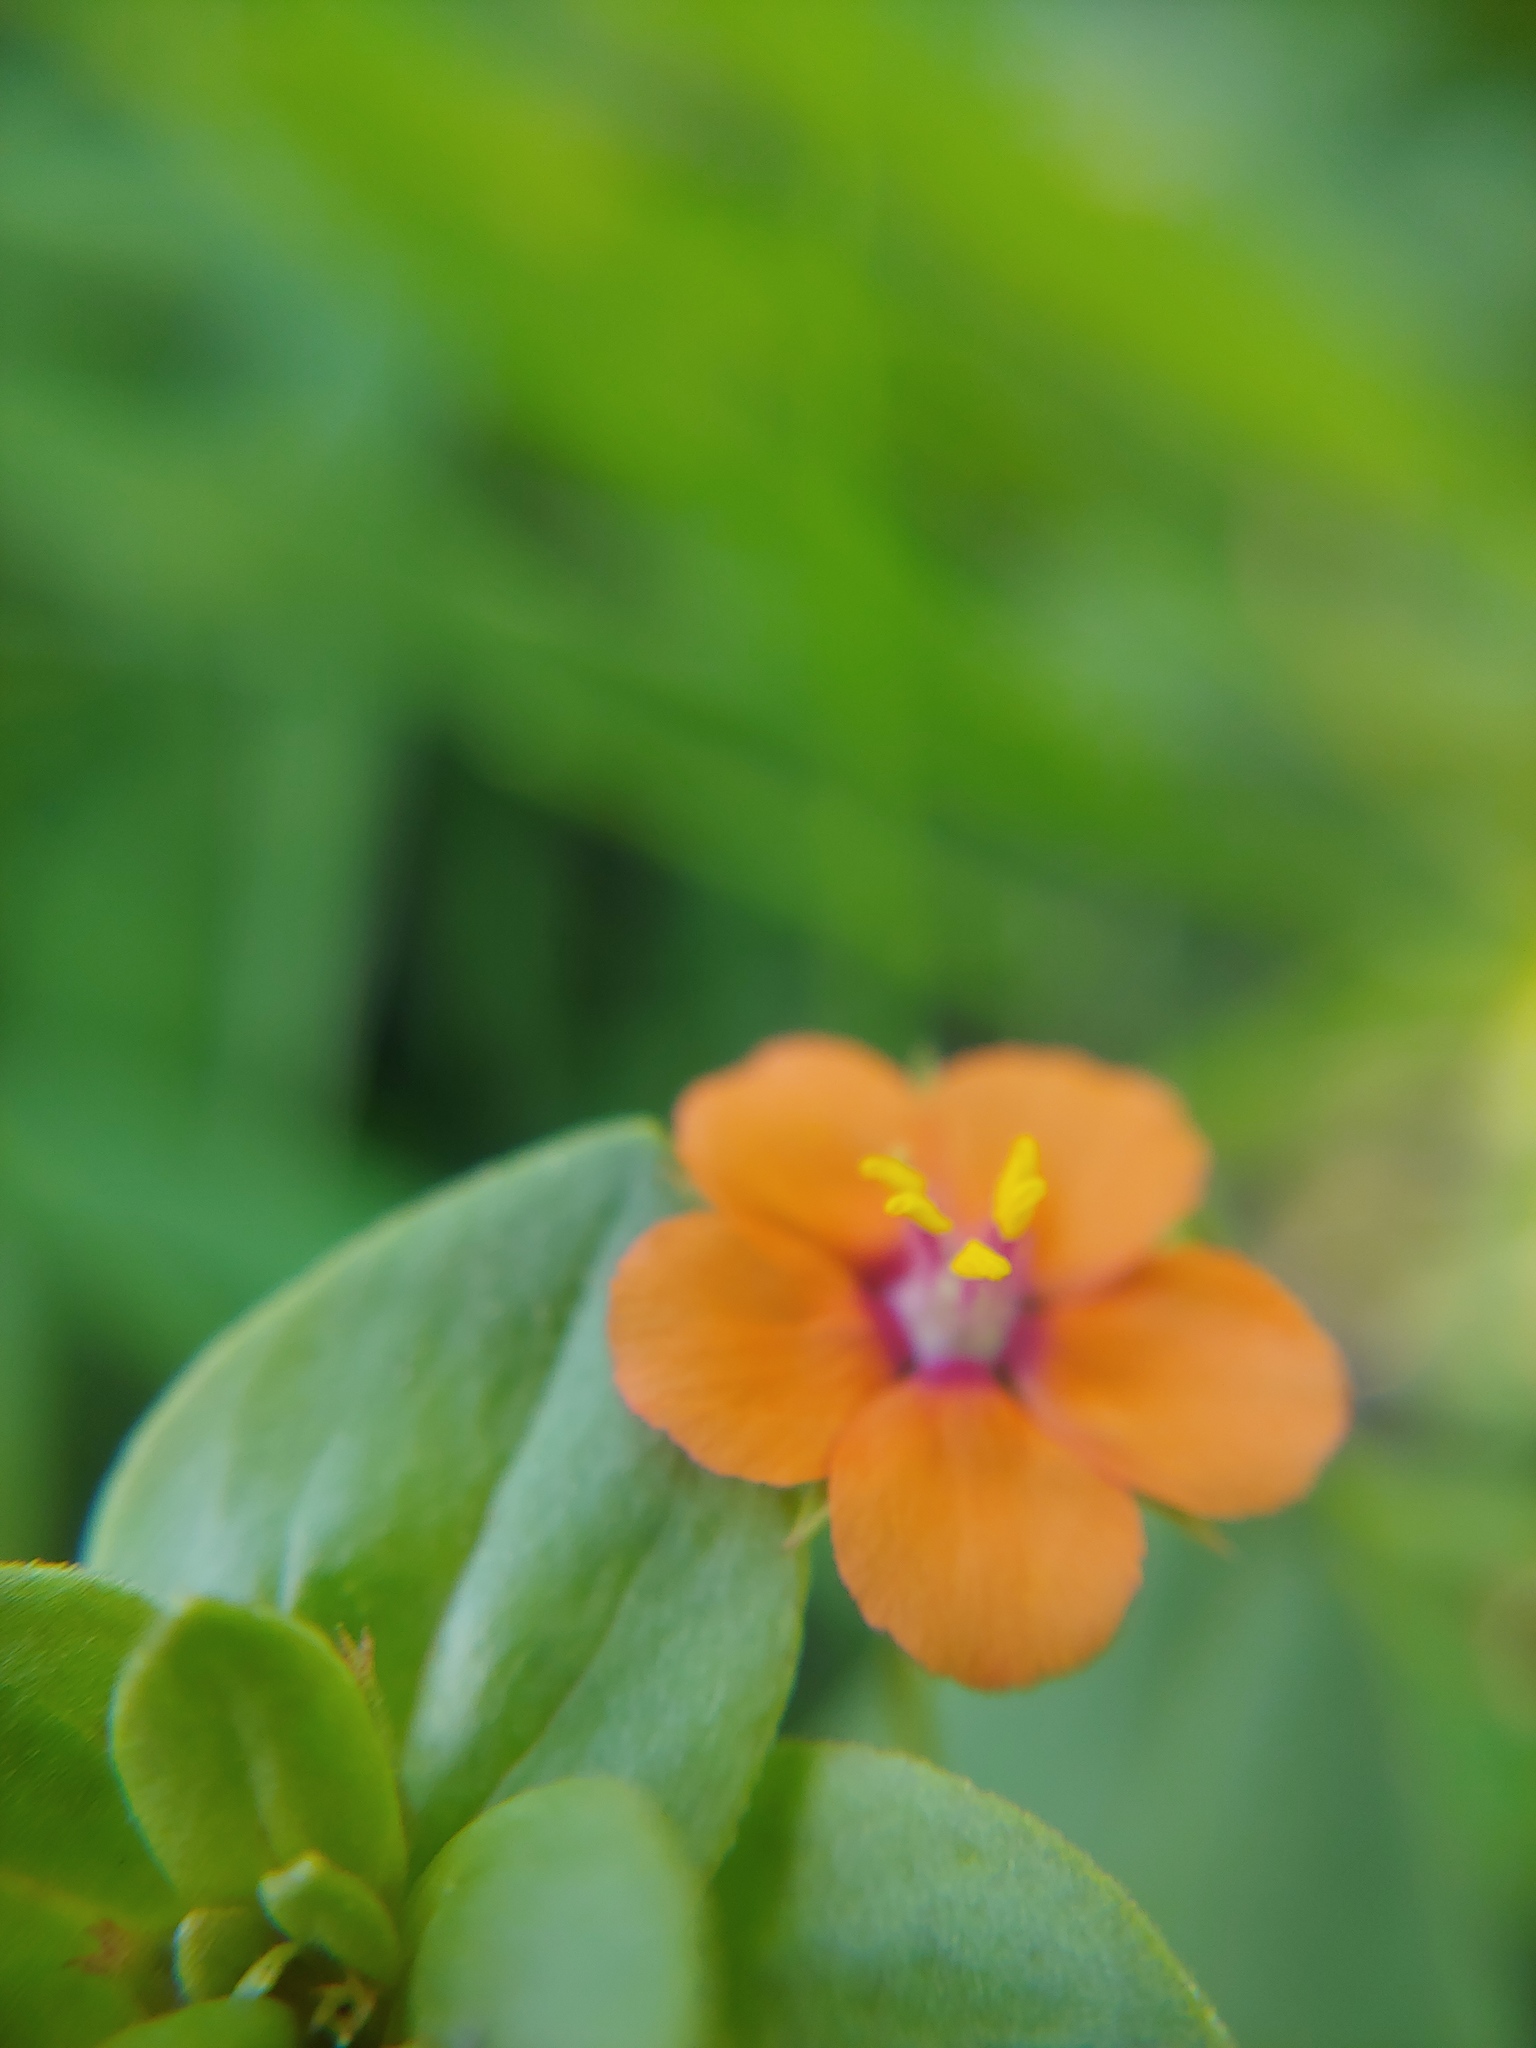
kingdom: Plantae
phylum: Tracheophyta
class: Magnoliopsida
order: Ericales
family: Primulaceae
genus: Lysimachia
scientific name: Lysimachia arvensis
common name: Scarlet pimpernel
